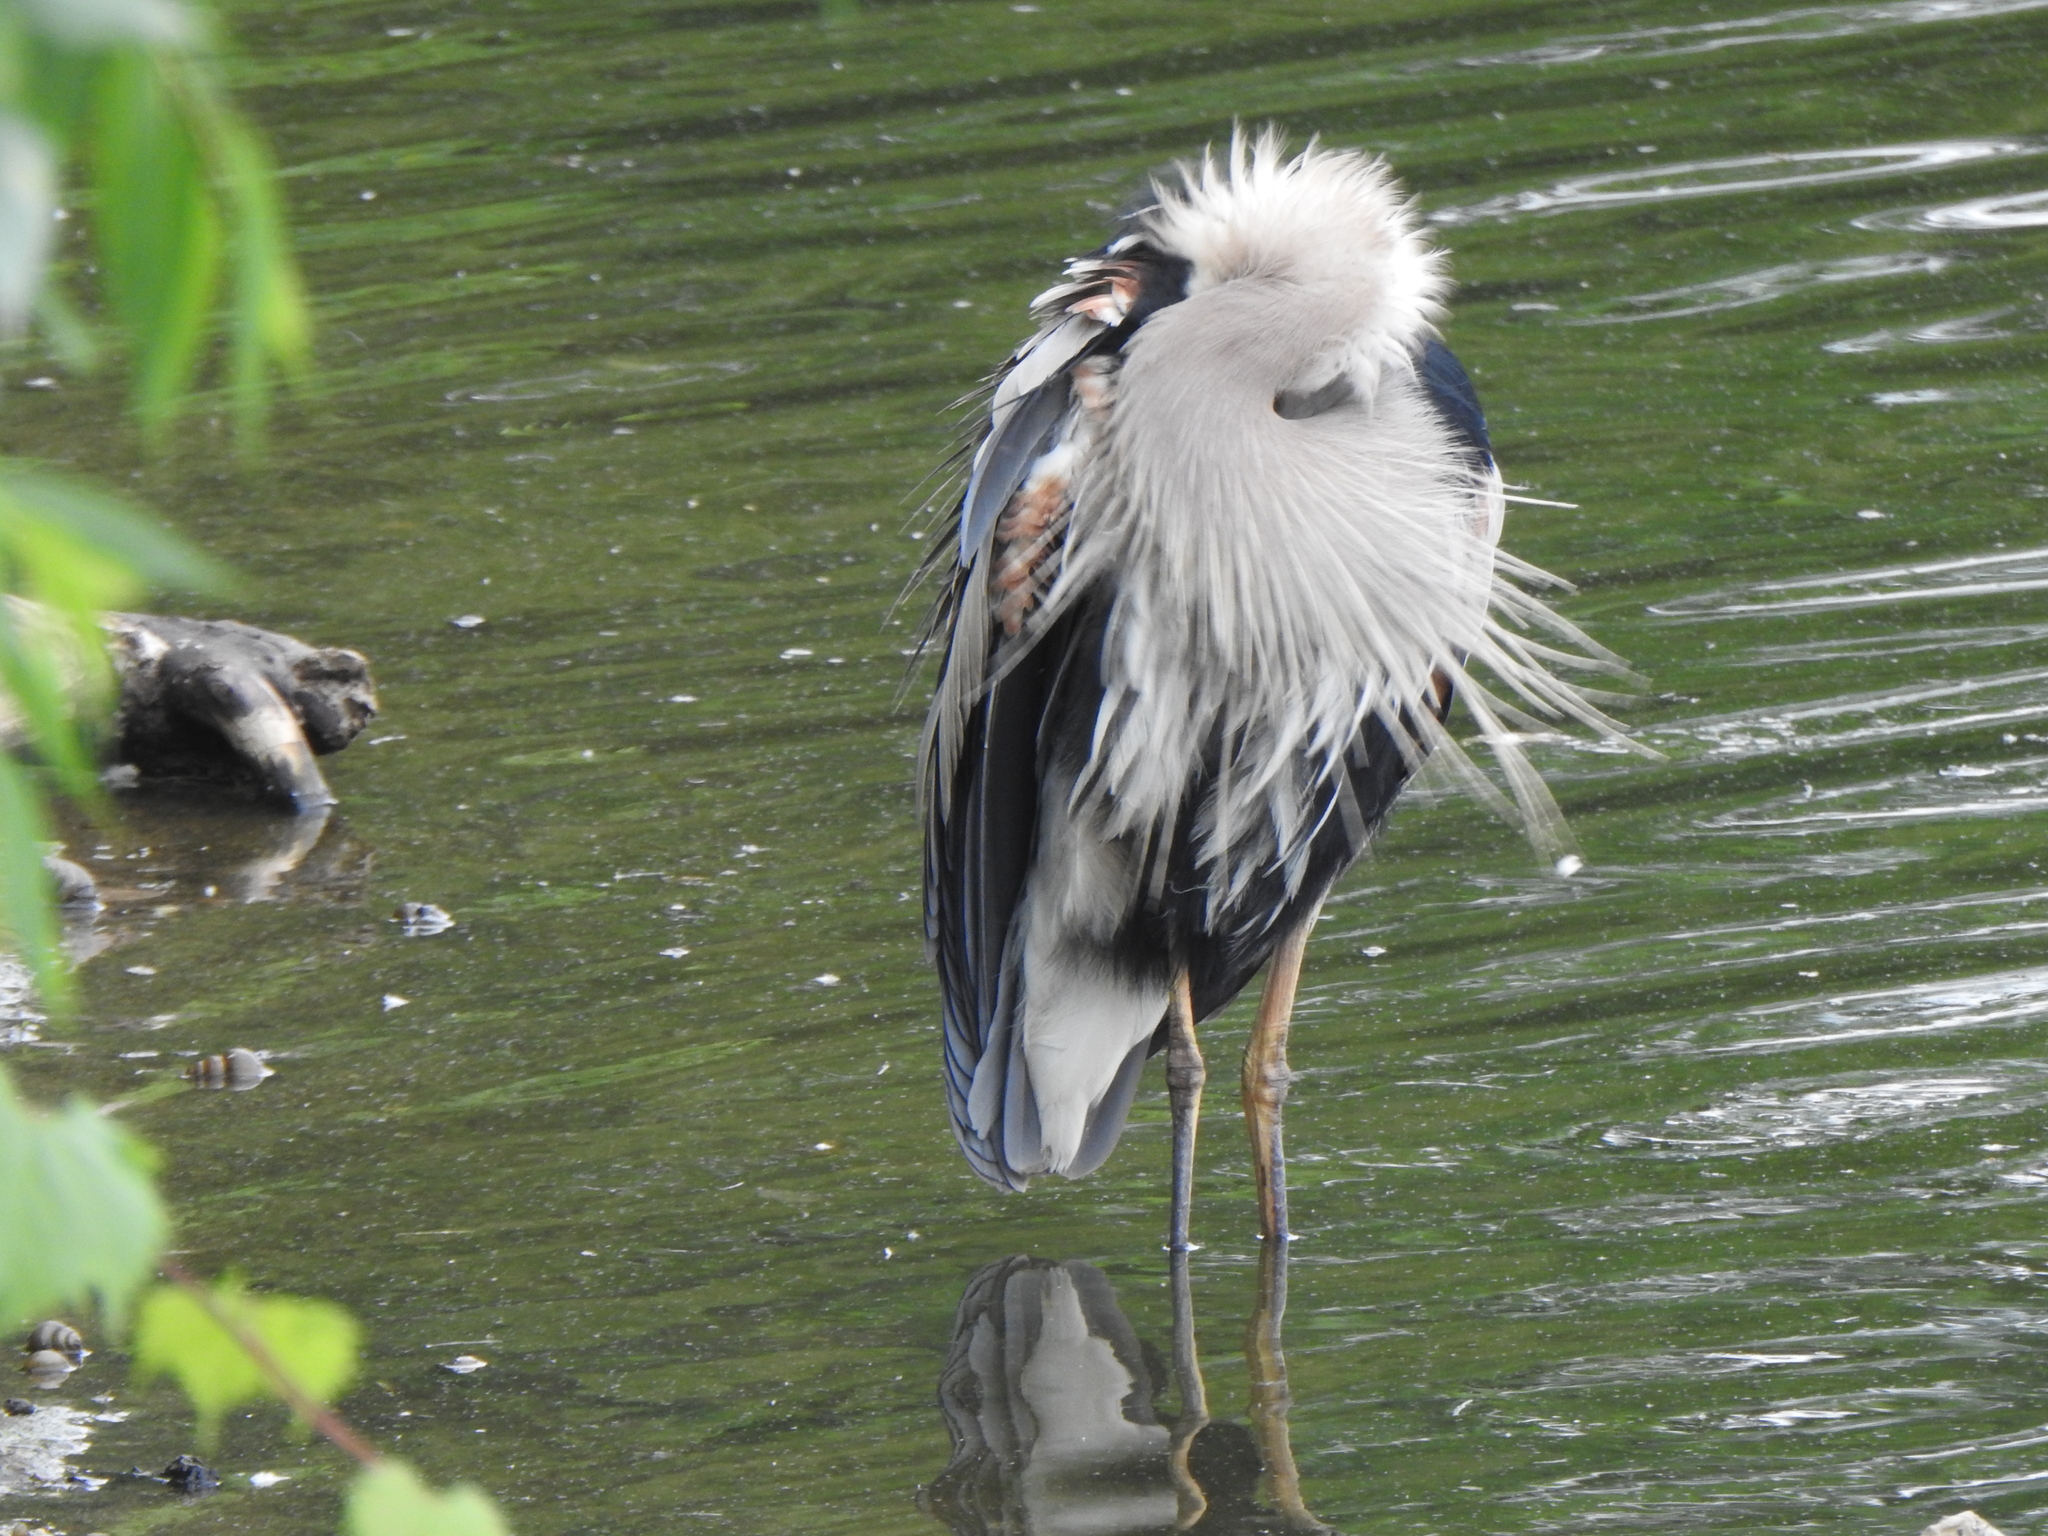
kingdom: Animalia
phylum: Chordata
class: Aves
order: Pelecaniformes
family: Ardeidae
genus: Ardea
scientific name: Ardea herodias
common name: Great blue heron
